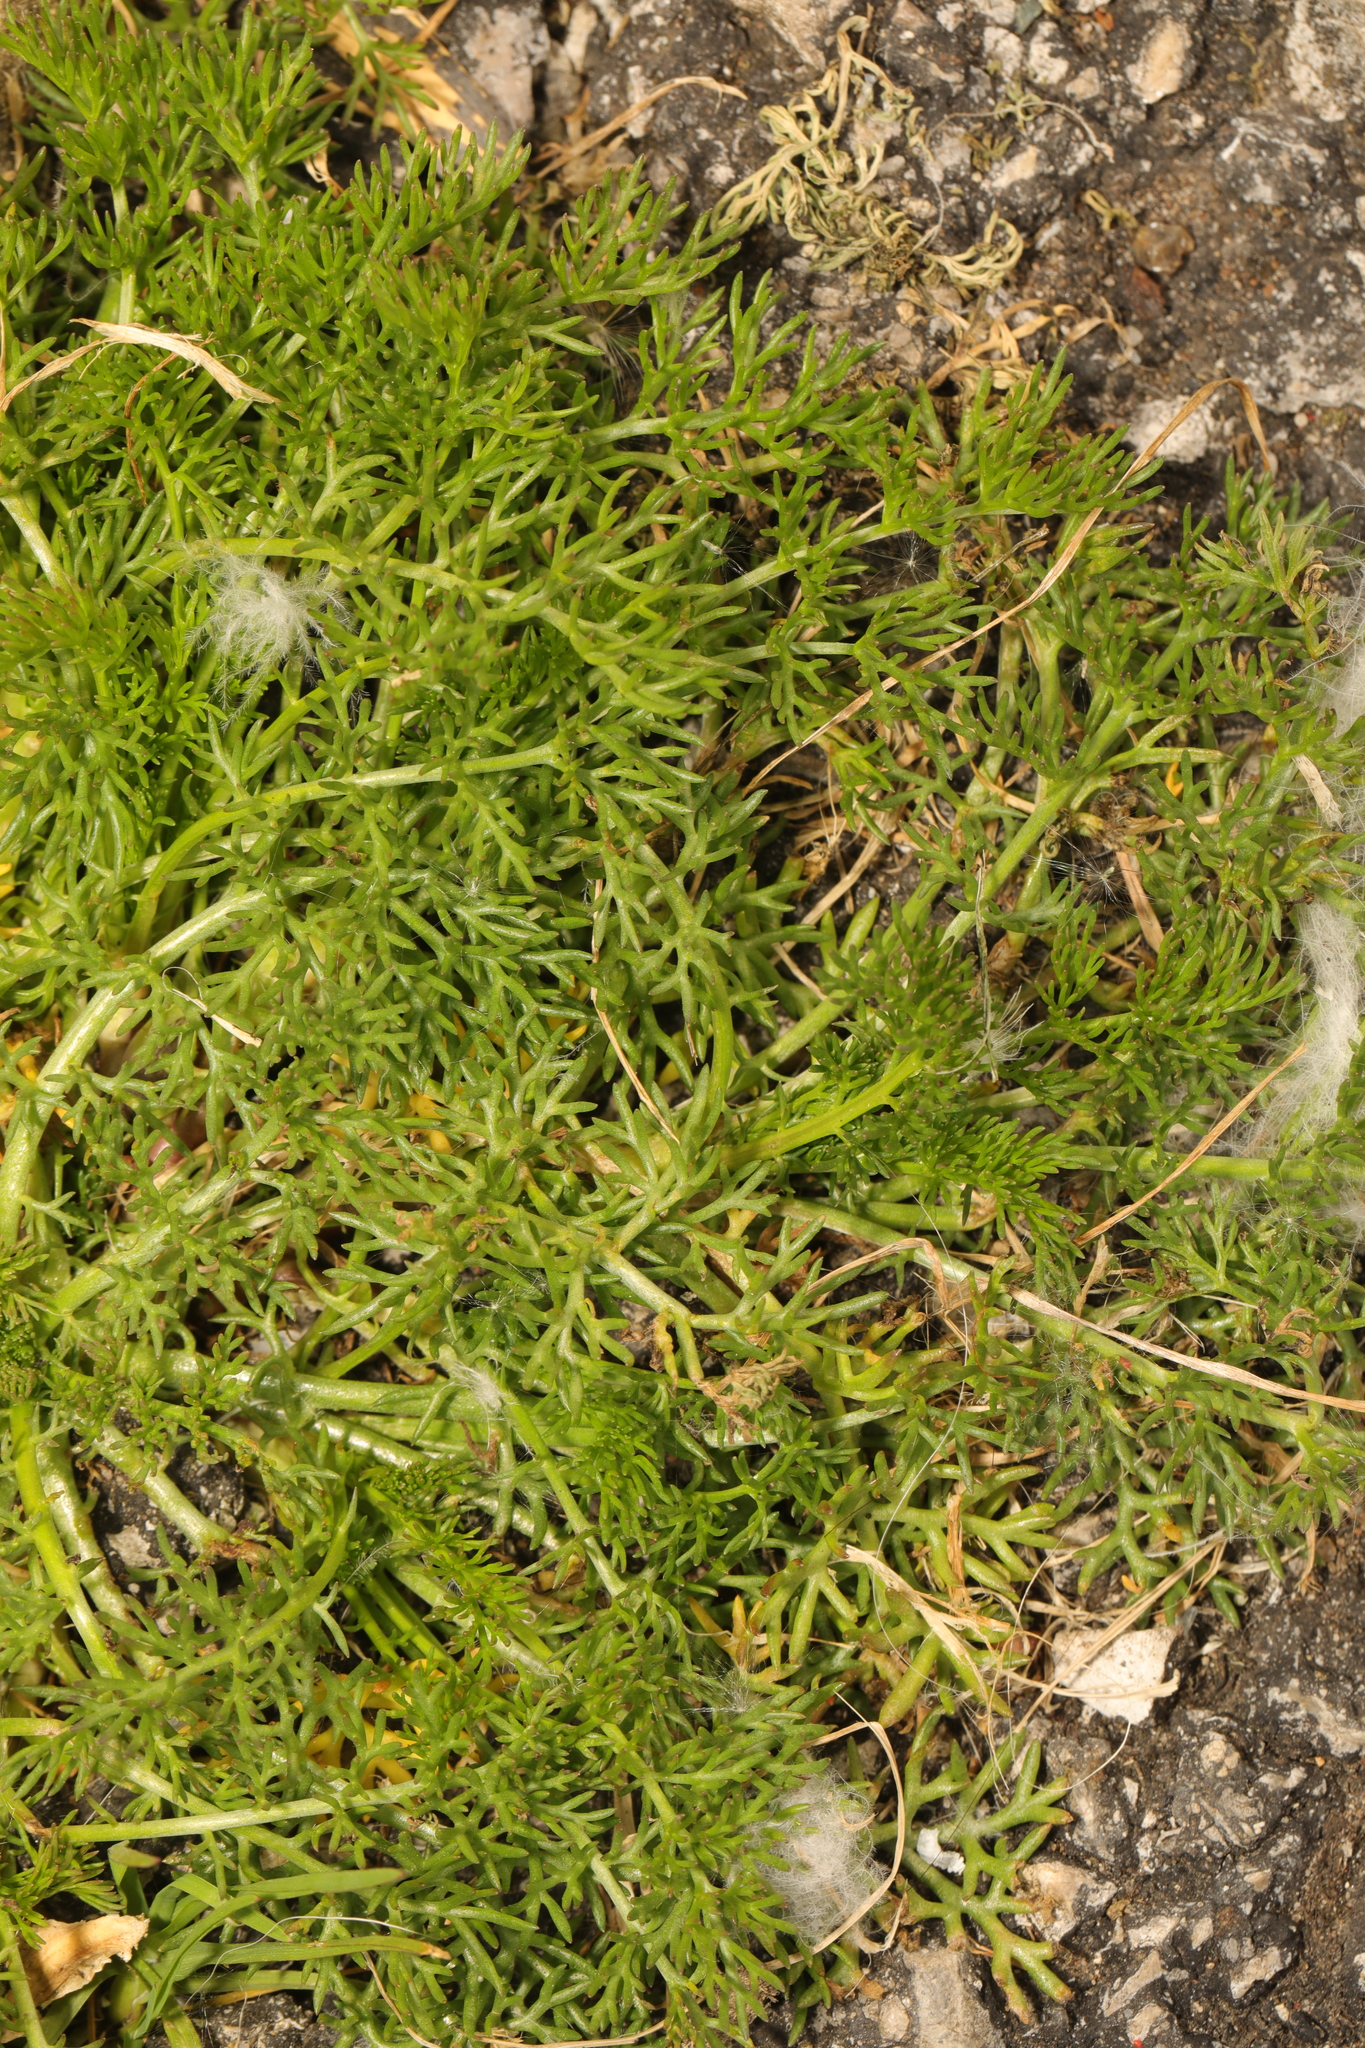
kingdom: Plantae
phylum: Tracheophyta
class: Magnoliopsida
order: Asterales
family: Asteraceae
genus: Tripleurospermum
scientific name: Tripleurospermum maritimum
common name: Sea mayweed
